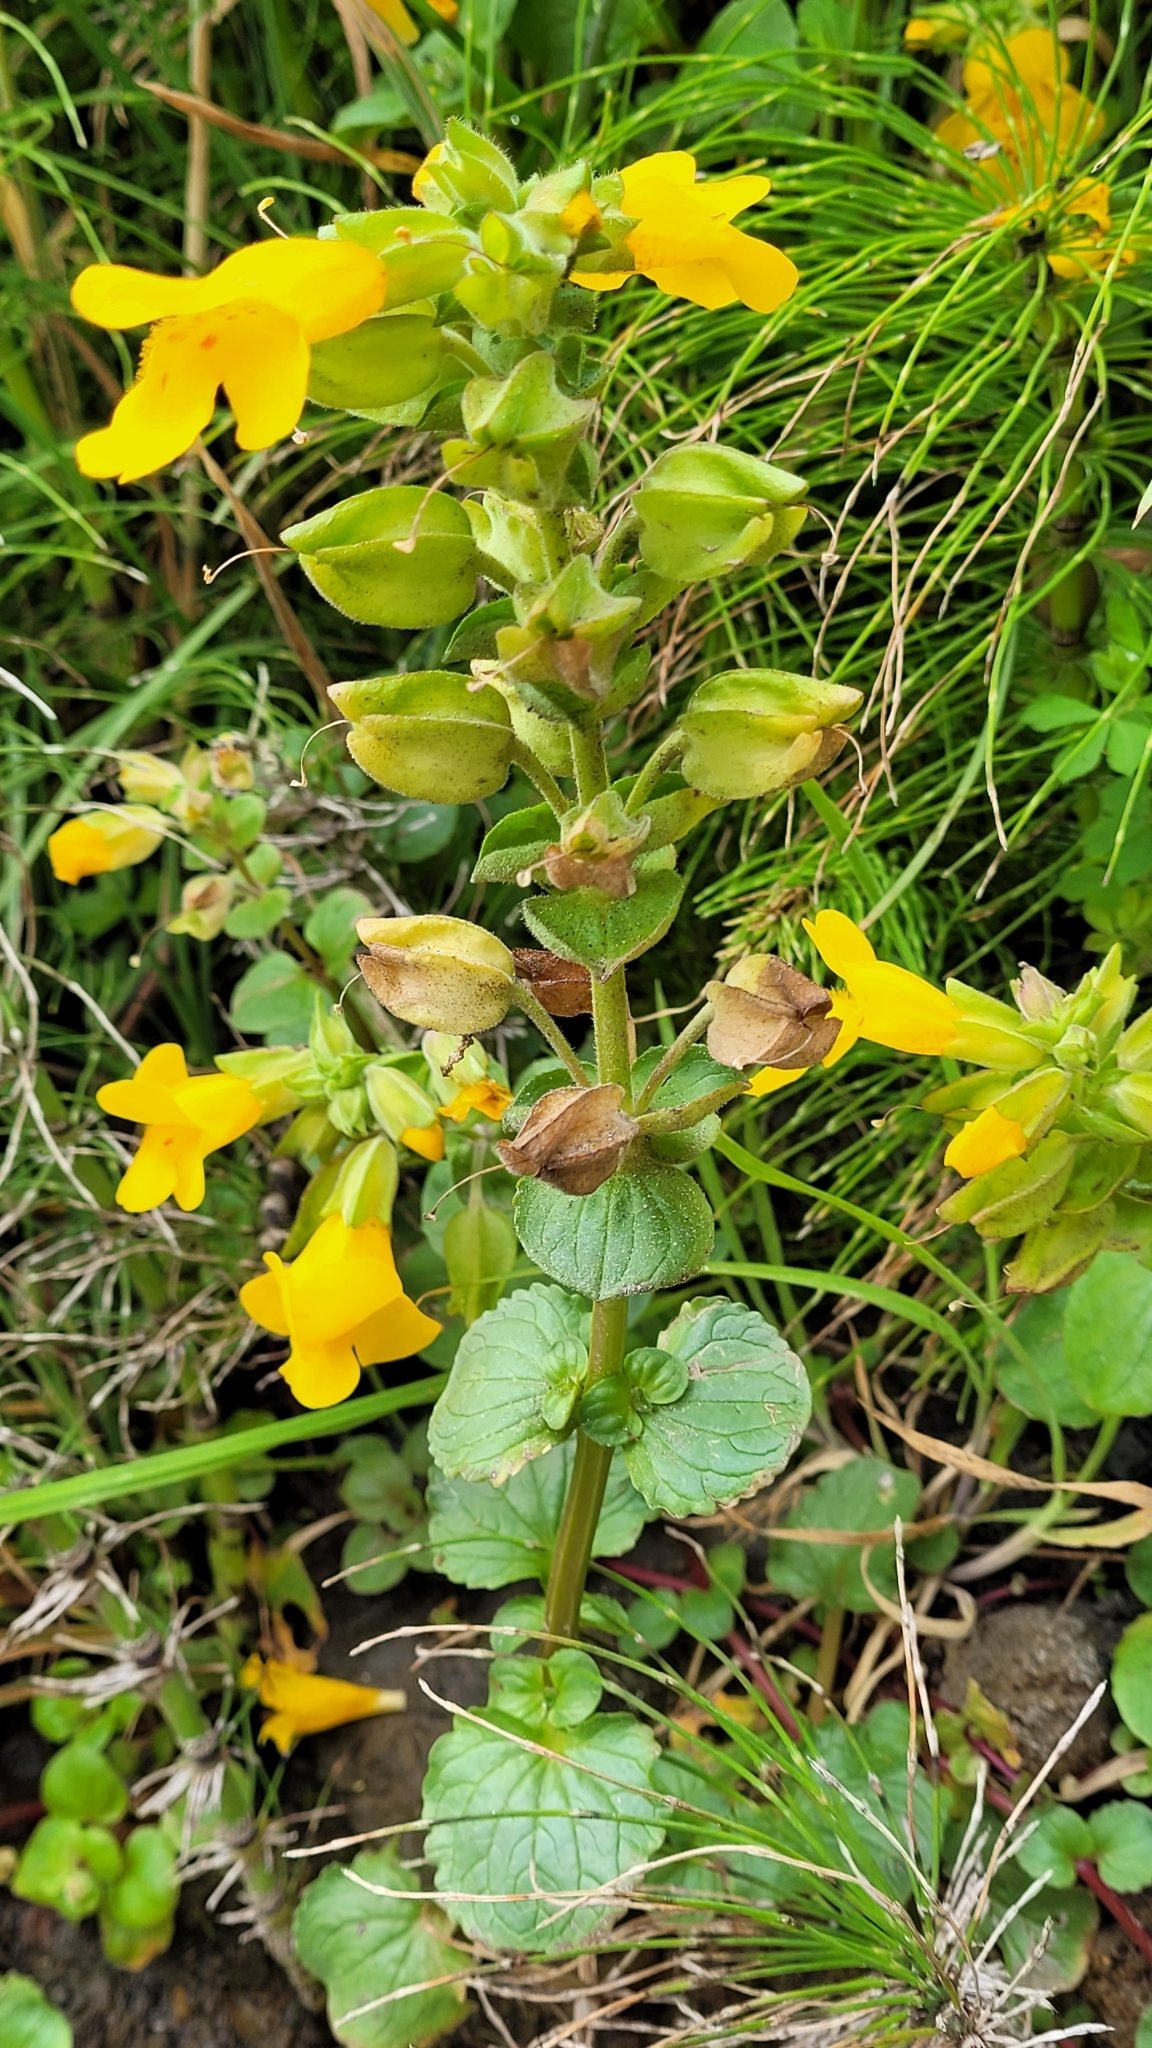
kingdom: Plantae
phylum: Tracheophyta
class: Magnoliopsida
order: Lamiales
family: Phrymaceae
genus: Erythranthe
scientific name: Erythranthe grandis
